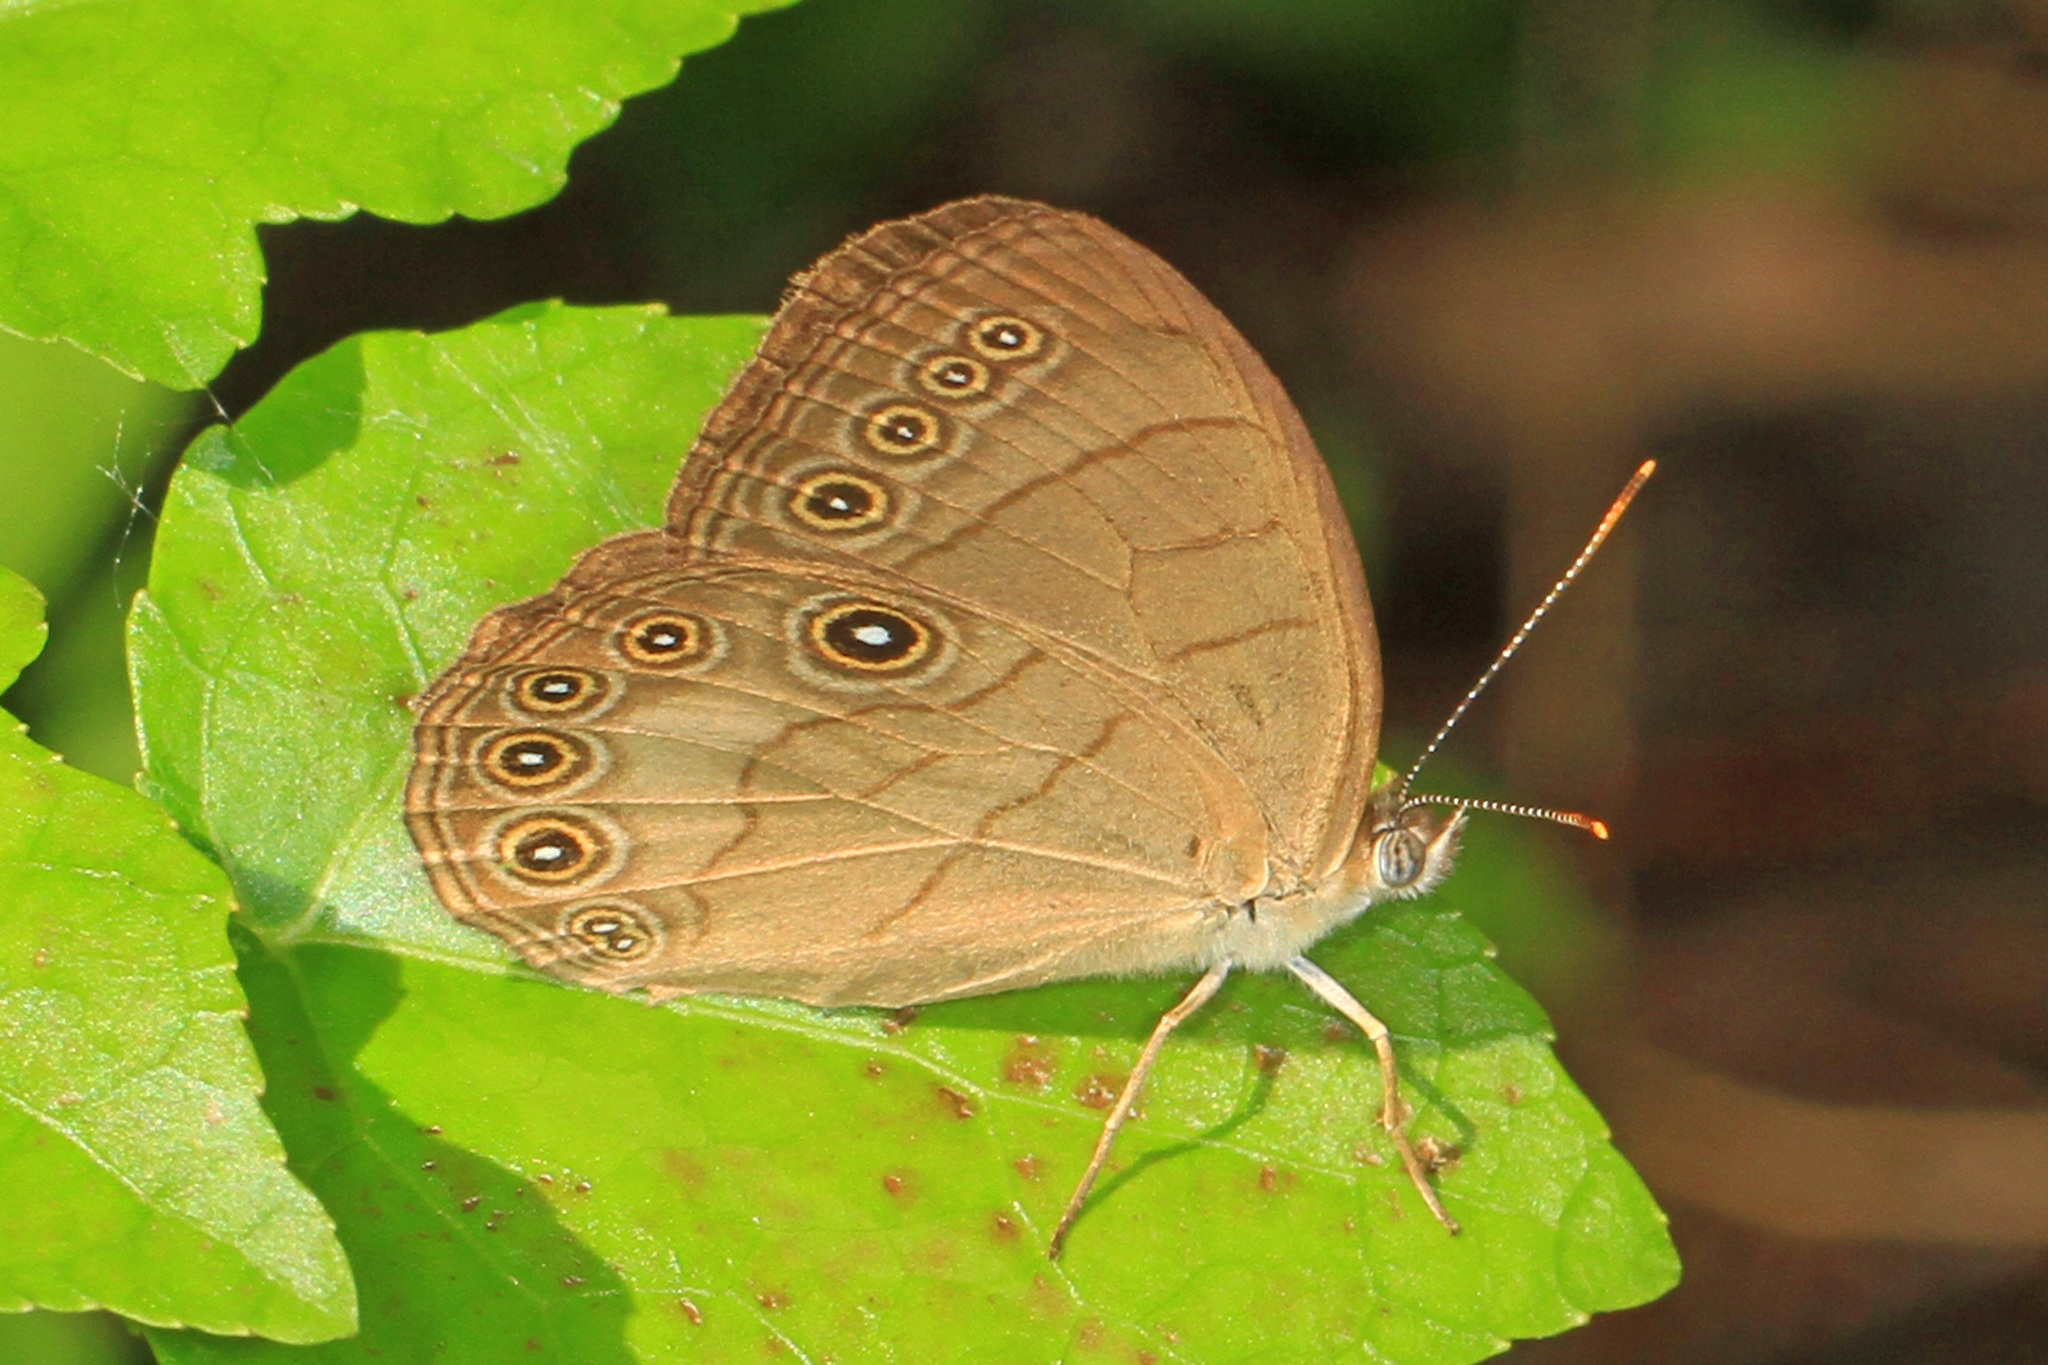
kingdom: Animalia
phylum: Arthropoda
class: Insecta
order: Lepidoptera
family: Nymphalidae
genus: Lethe
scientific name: Lethe eurydice
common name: Eyed brown
